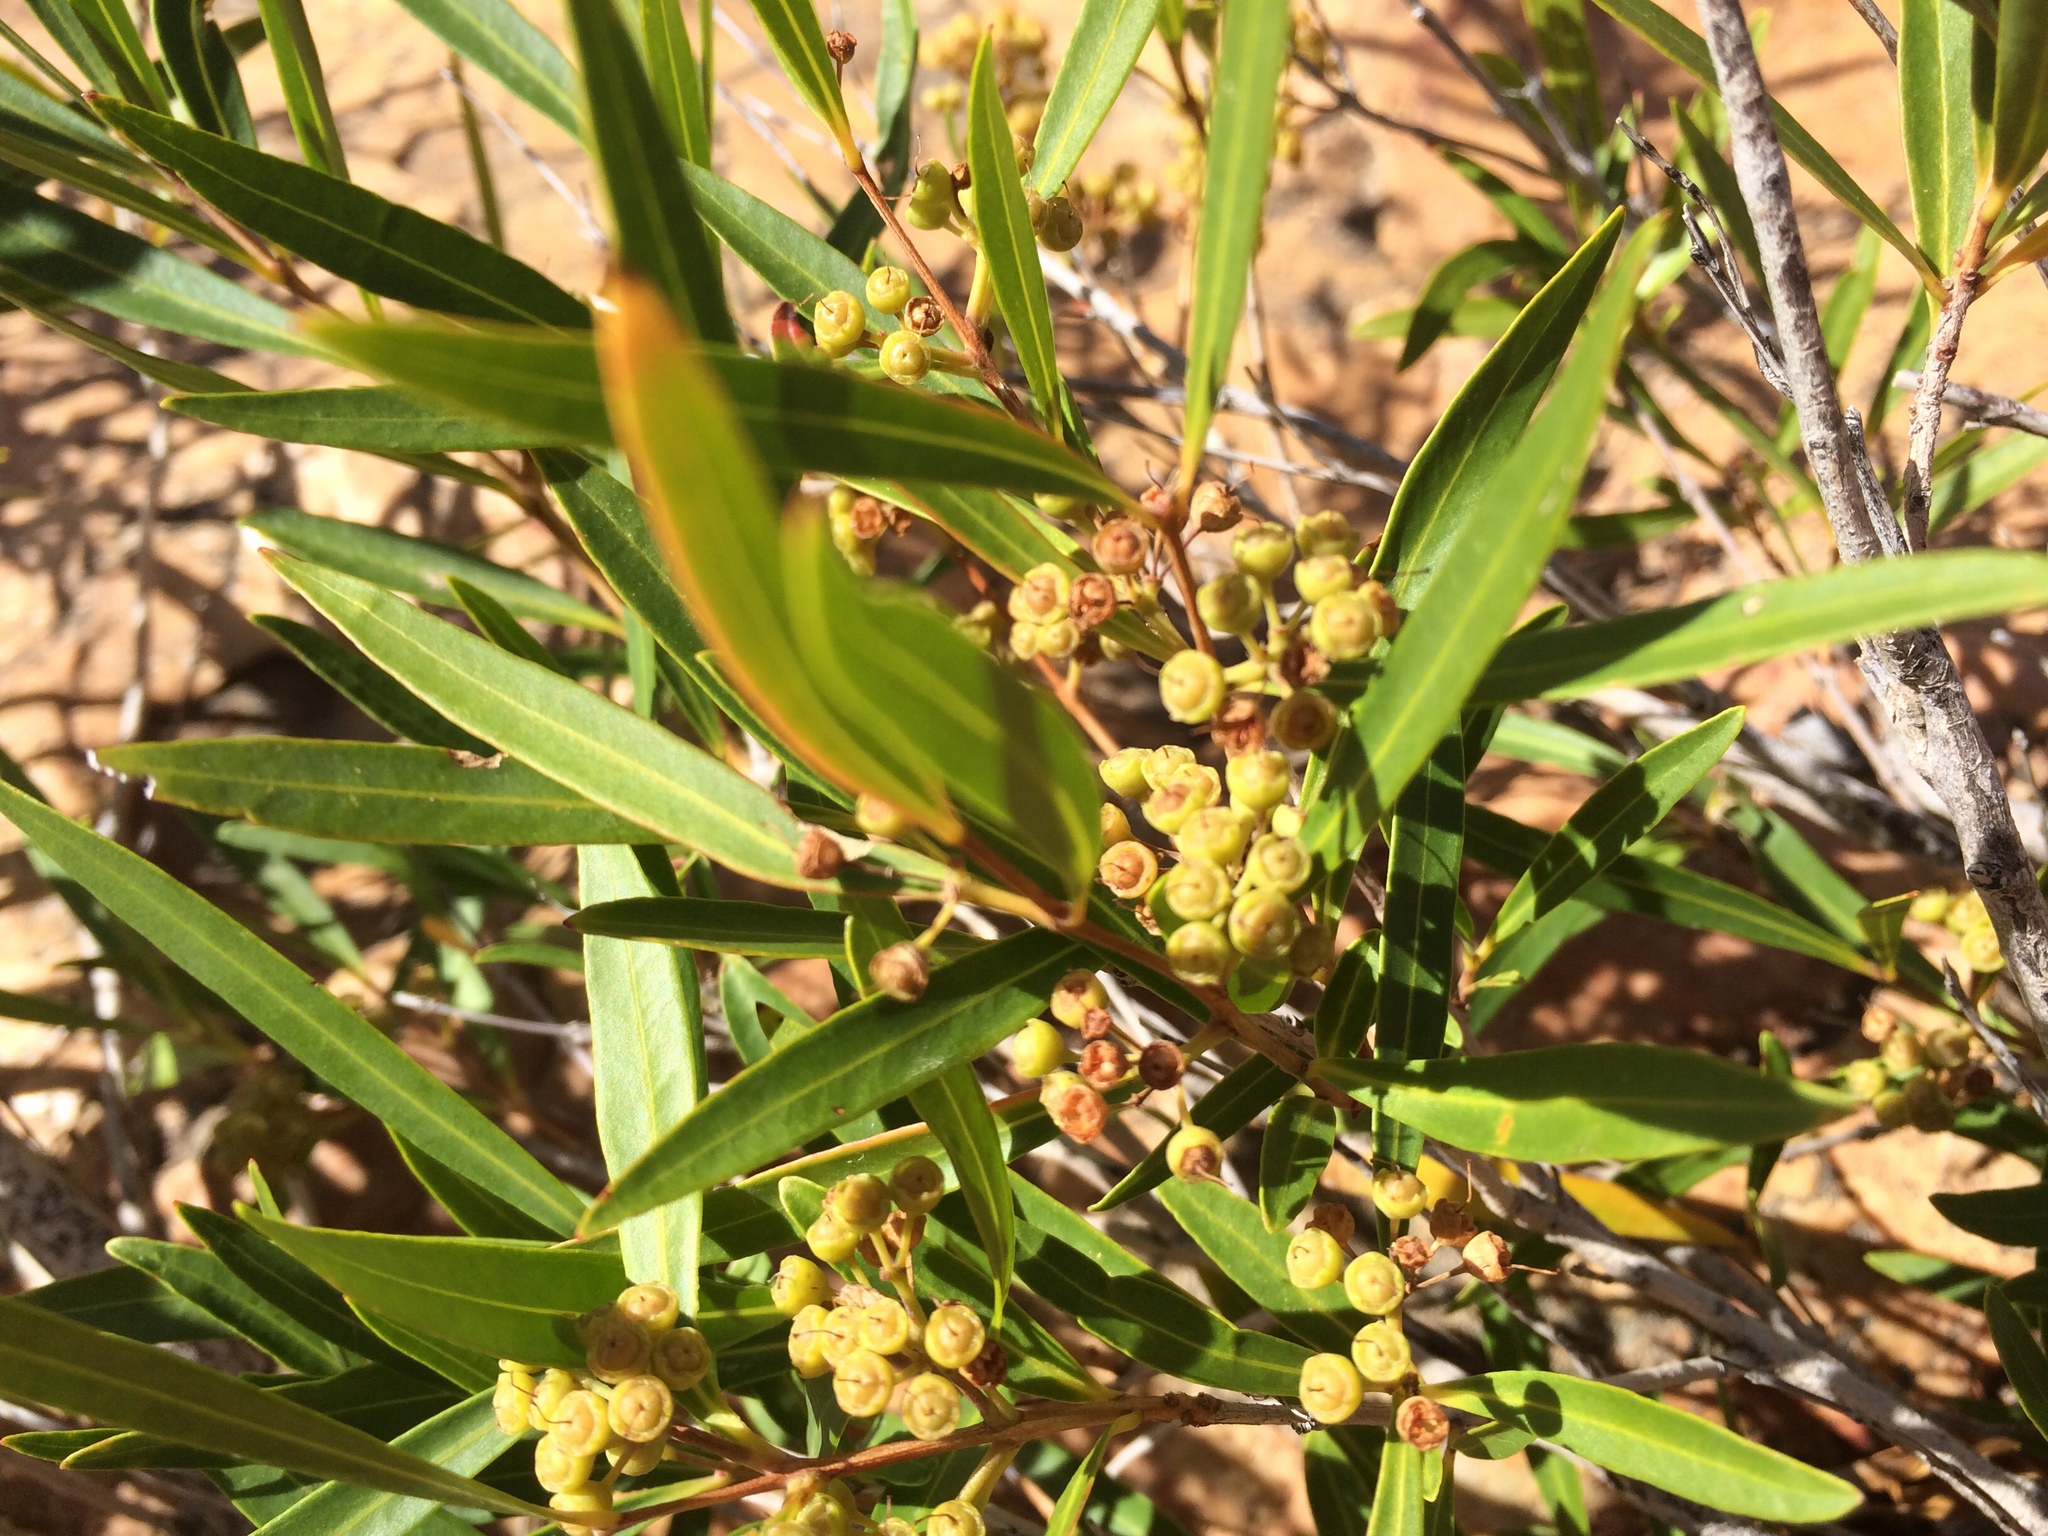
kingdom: Plantae
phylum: Tracheophyta
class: Magnoliopsida
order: Myrtales
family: Myrtaceae
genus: Callistemon
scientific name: Callistemon lanceolatus
